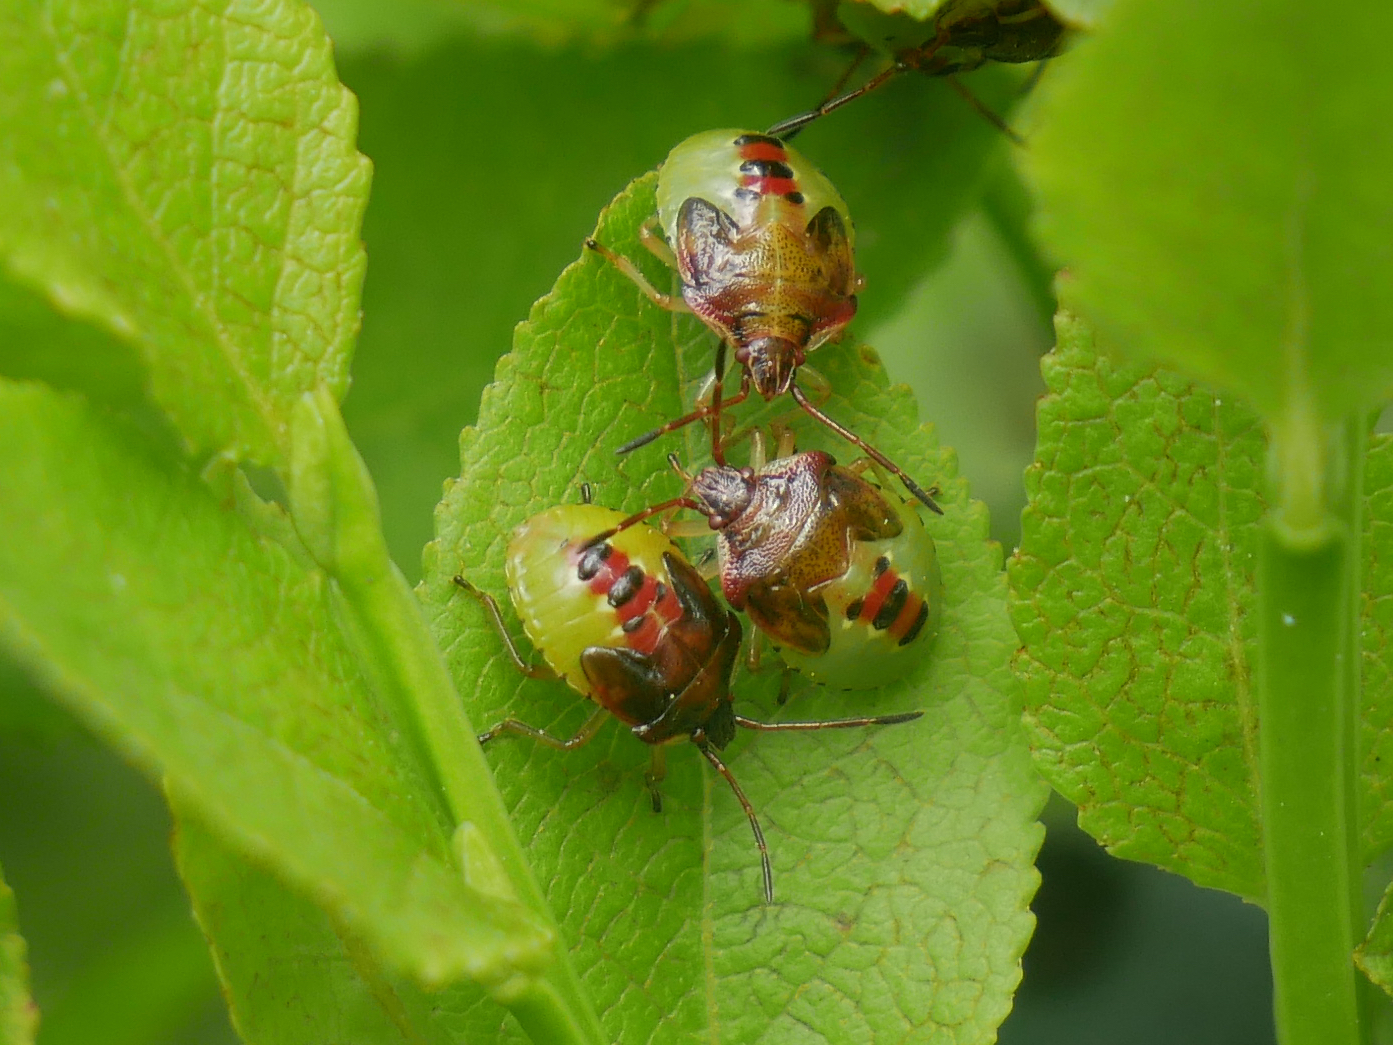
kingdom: Animalia
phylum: Arthropoda
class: Insecta
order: Hemiptera
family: Acanthosomatidae
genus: Elasmucha
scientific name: Elasmucha ferrugata
